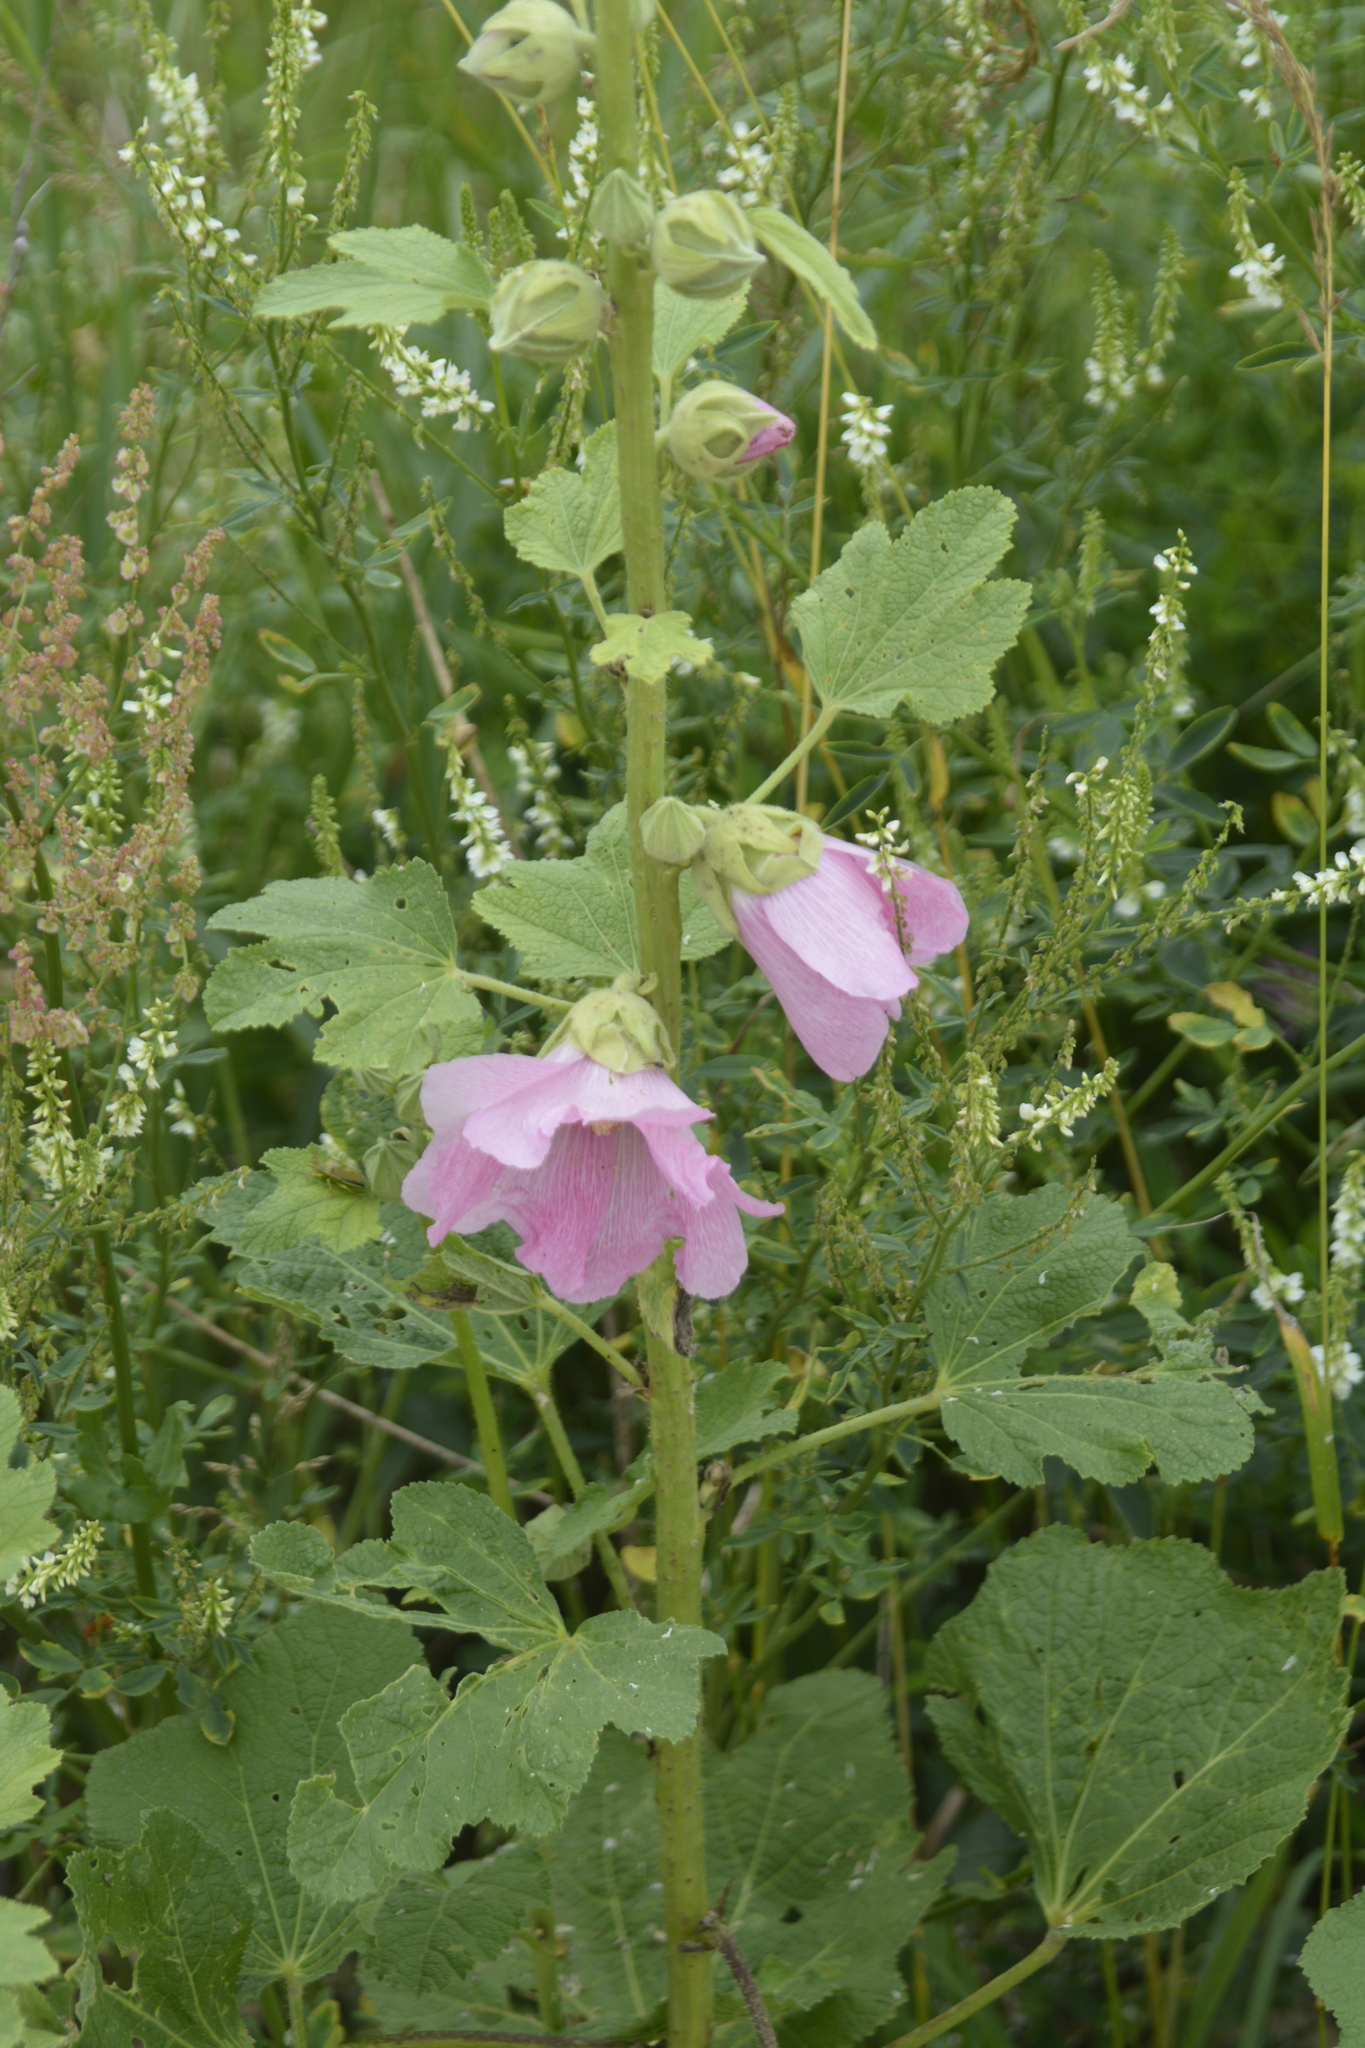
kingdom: Plantae
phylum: Tracheophyta
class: Magnoliopsida
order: Malvales
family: Malvaceae
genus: Alcea
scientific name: Alcea rosea
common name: Hollyhock
